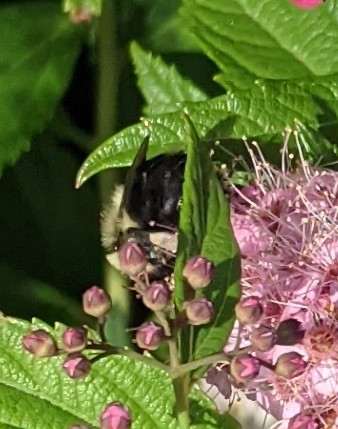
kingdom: Animalia
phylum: Arthropoda
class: Insecta
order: Hymenoptera
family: Apidae
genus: Bombus
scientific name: Bombus impatiens
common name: Common eastern bumble bee
